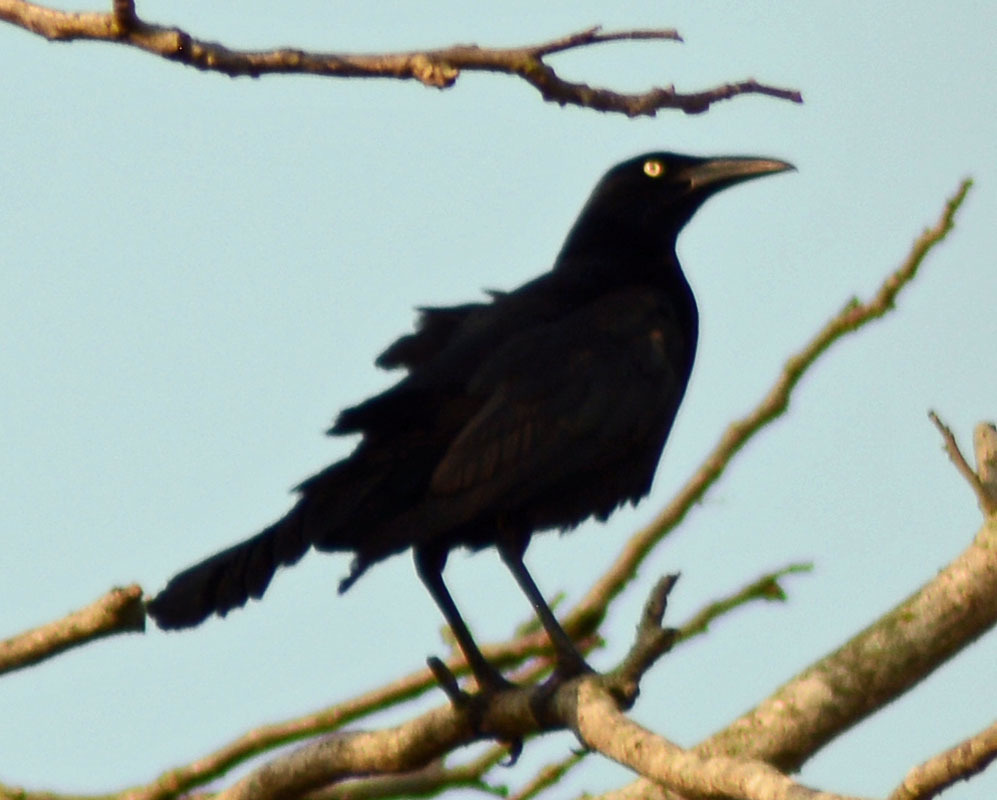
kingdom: Animalia
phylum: Chordata
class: Aves
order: Passeriformes
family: Icteridae
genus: Quiscalus
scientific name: Quiscalus mexicanus
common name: Great-tailed grackle
